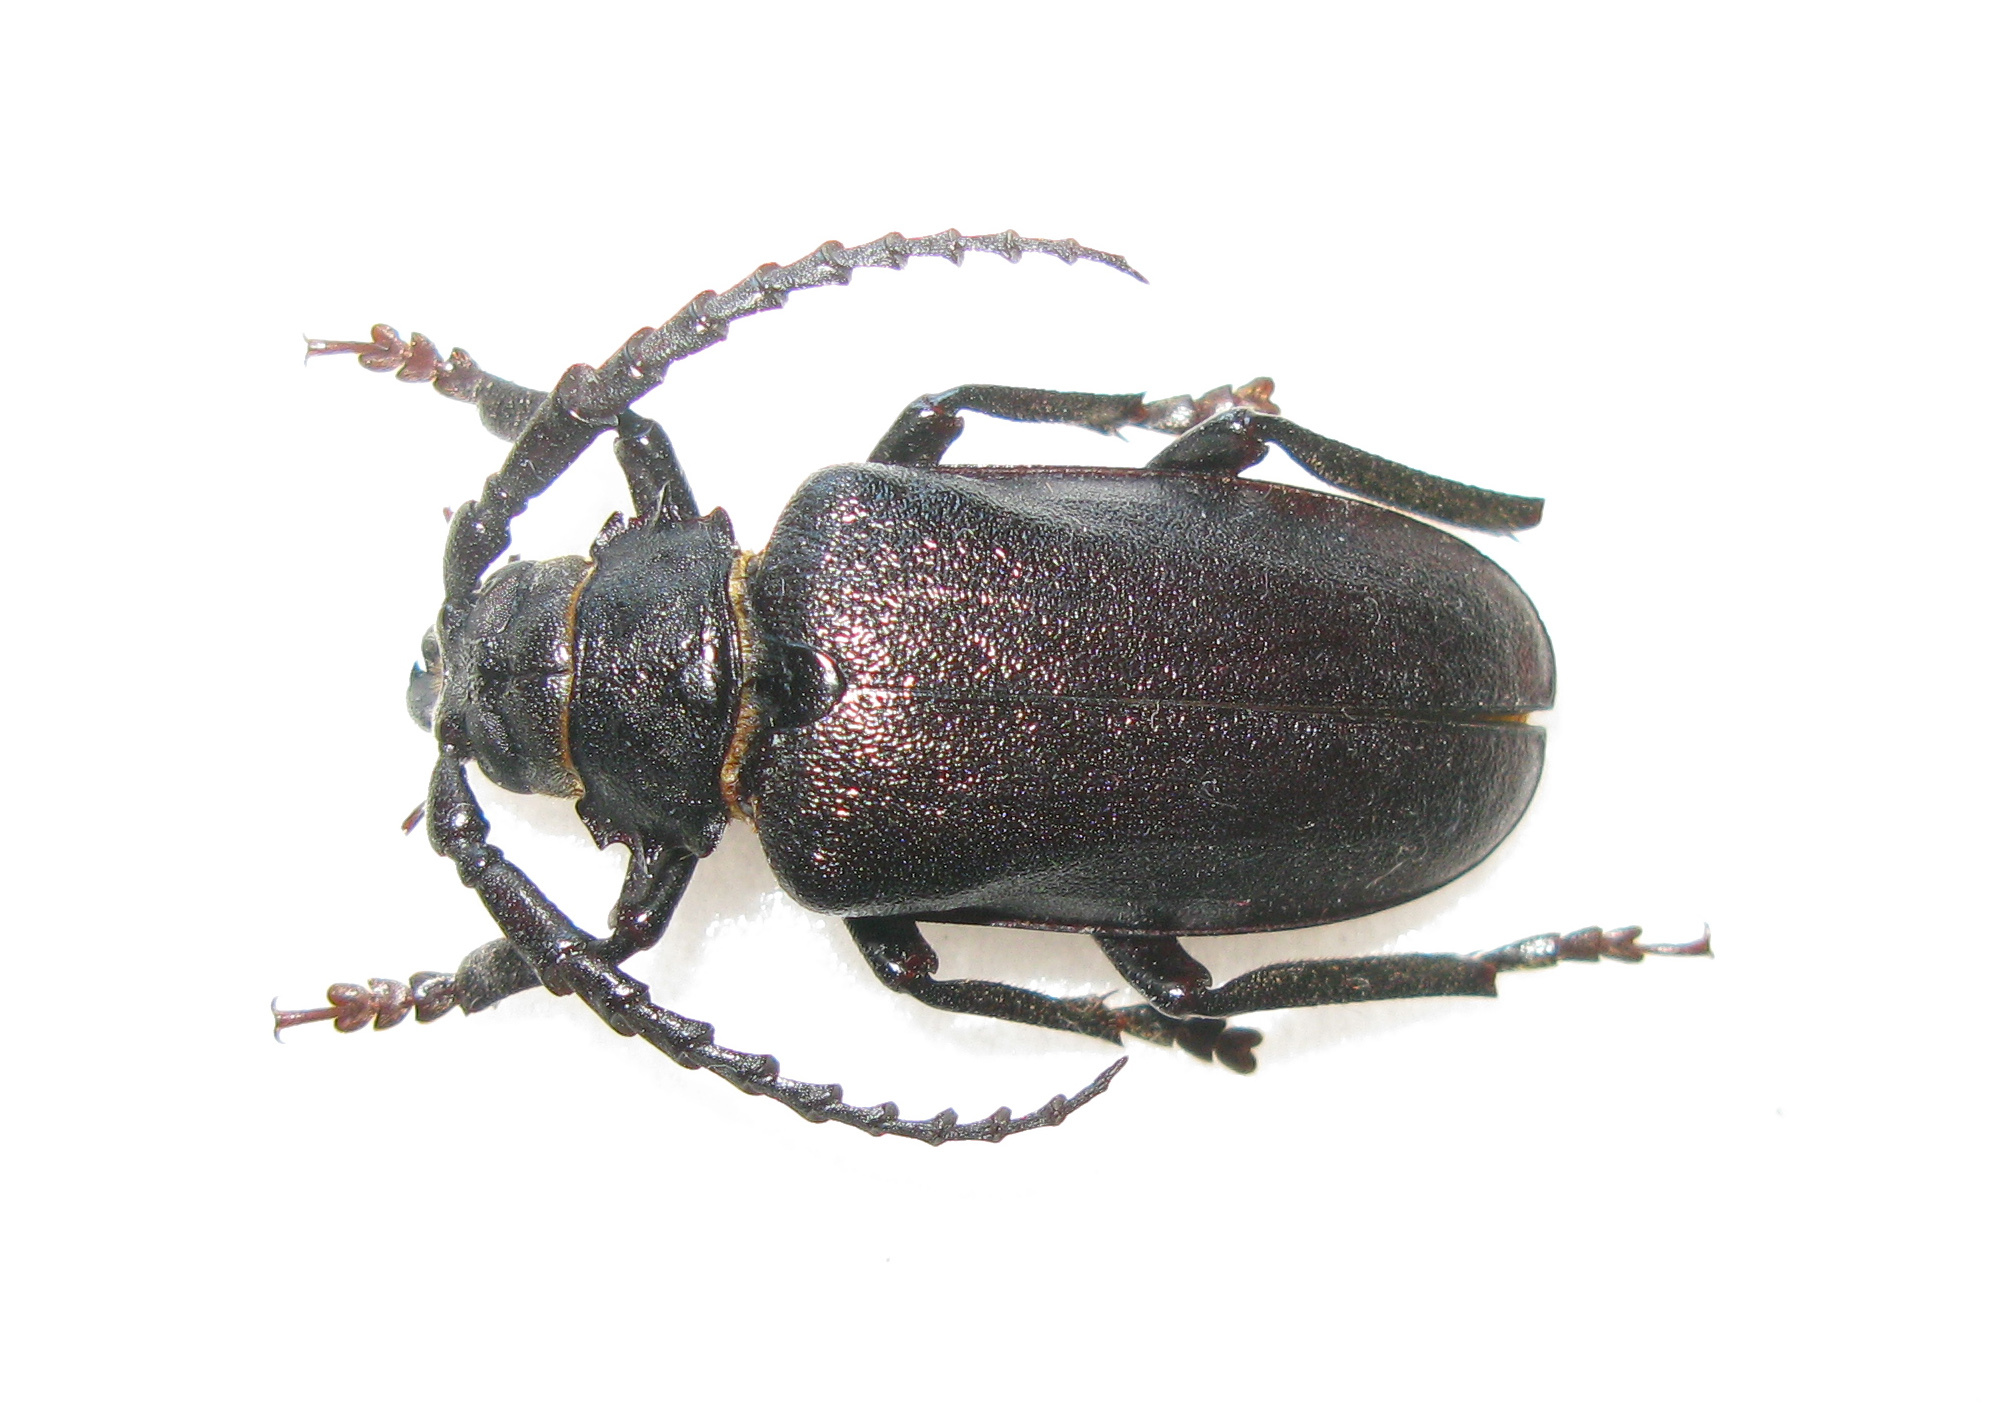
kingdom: Animalia
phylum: Arthropoda
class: Insecta
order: Coleoptera
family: Cerambycidae
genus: Prionus
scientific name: Prionus coriarius
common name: Tanner beetle
